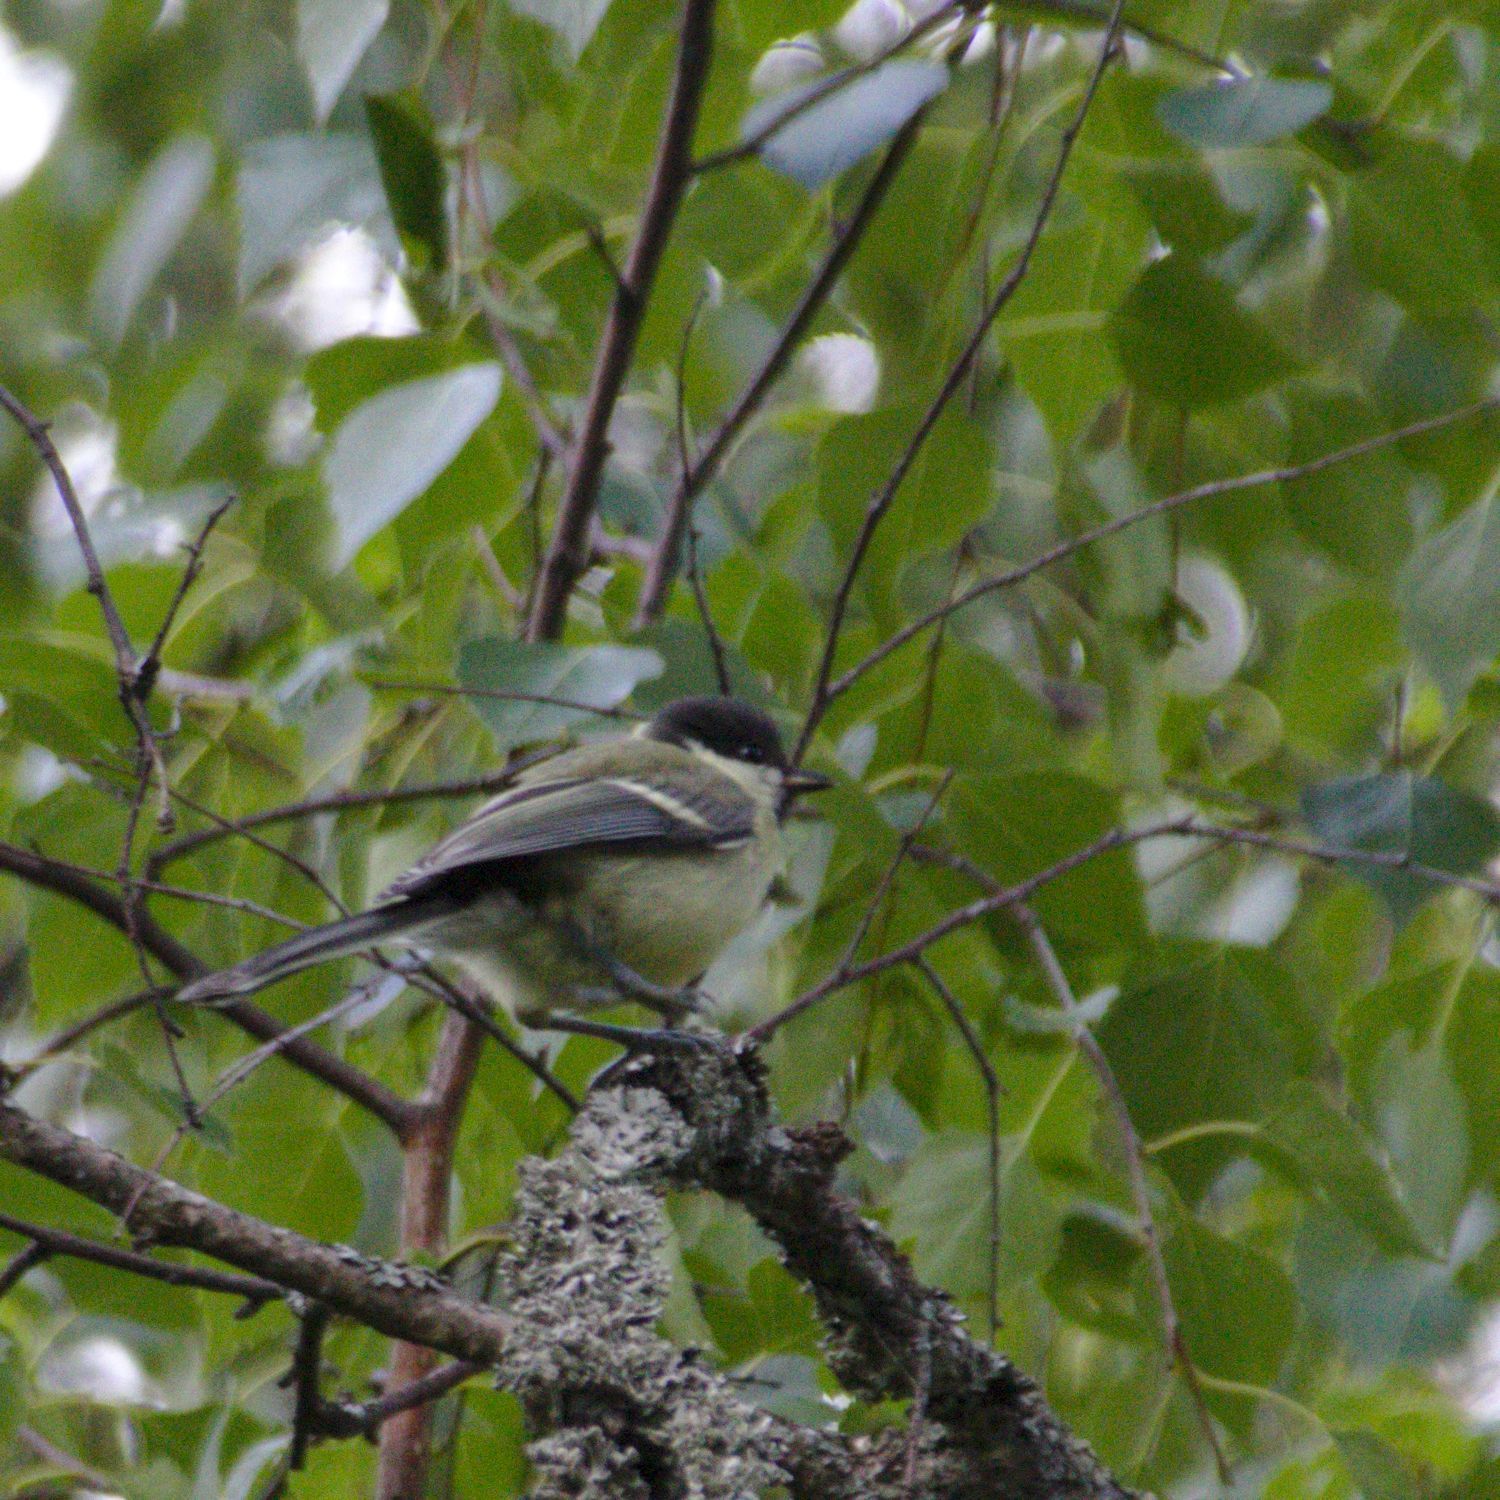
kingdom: Animalia
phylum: Chordata
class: Aves
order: Passeriformes
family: Paridae
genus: Parus
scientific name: Parus major
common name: Great tit
